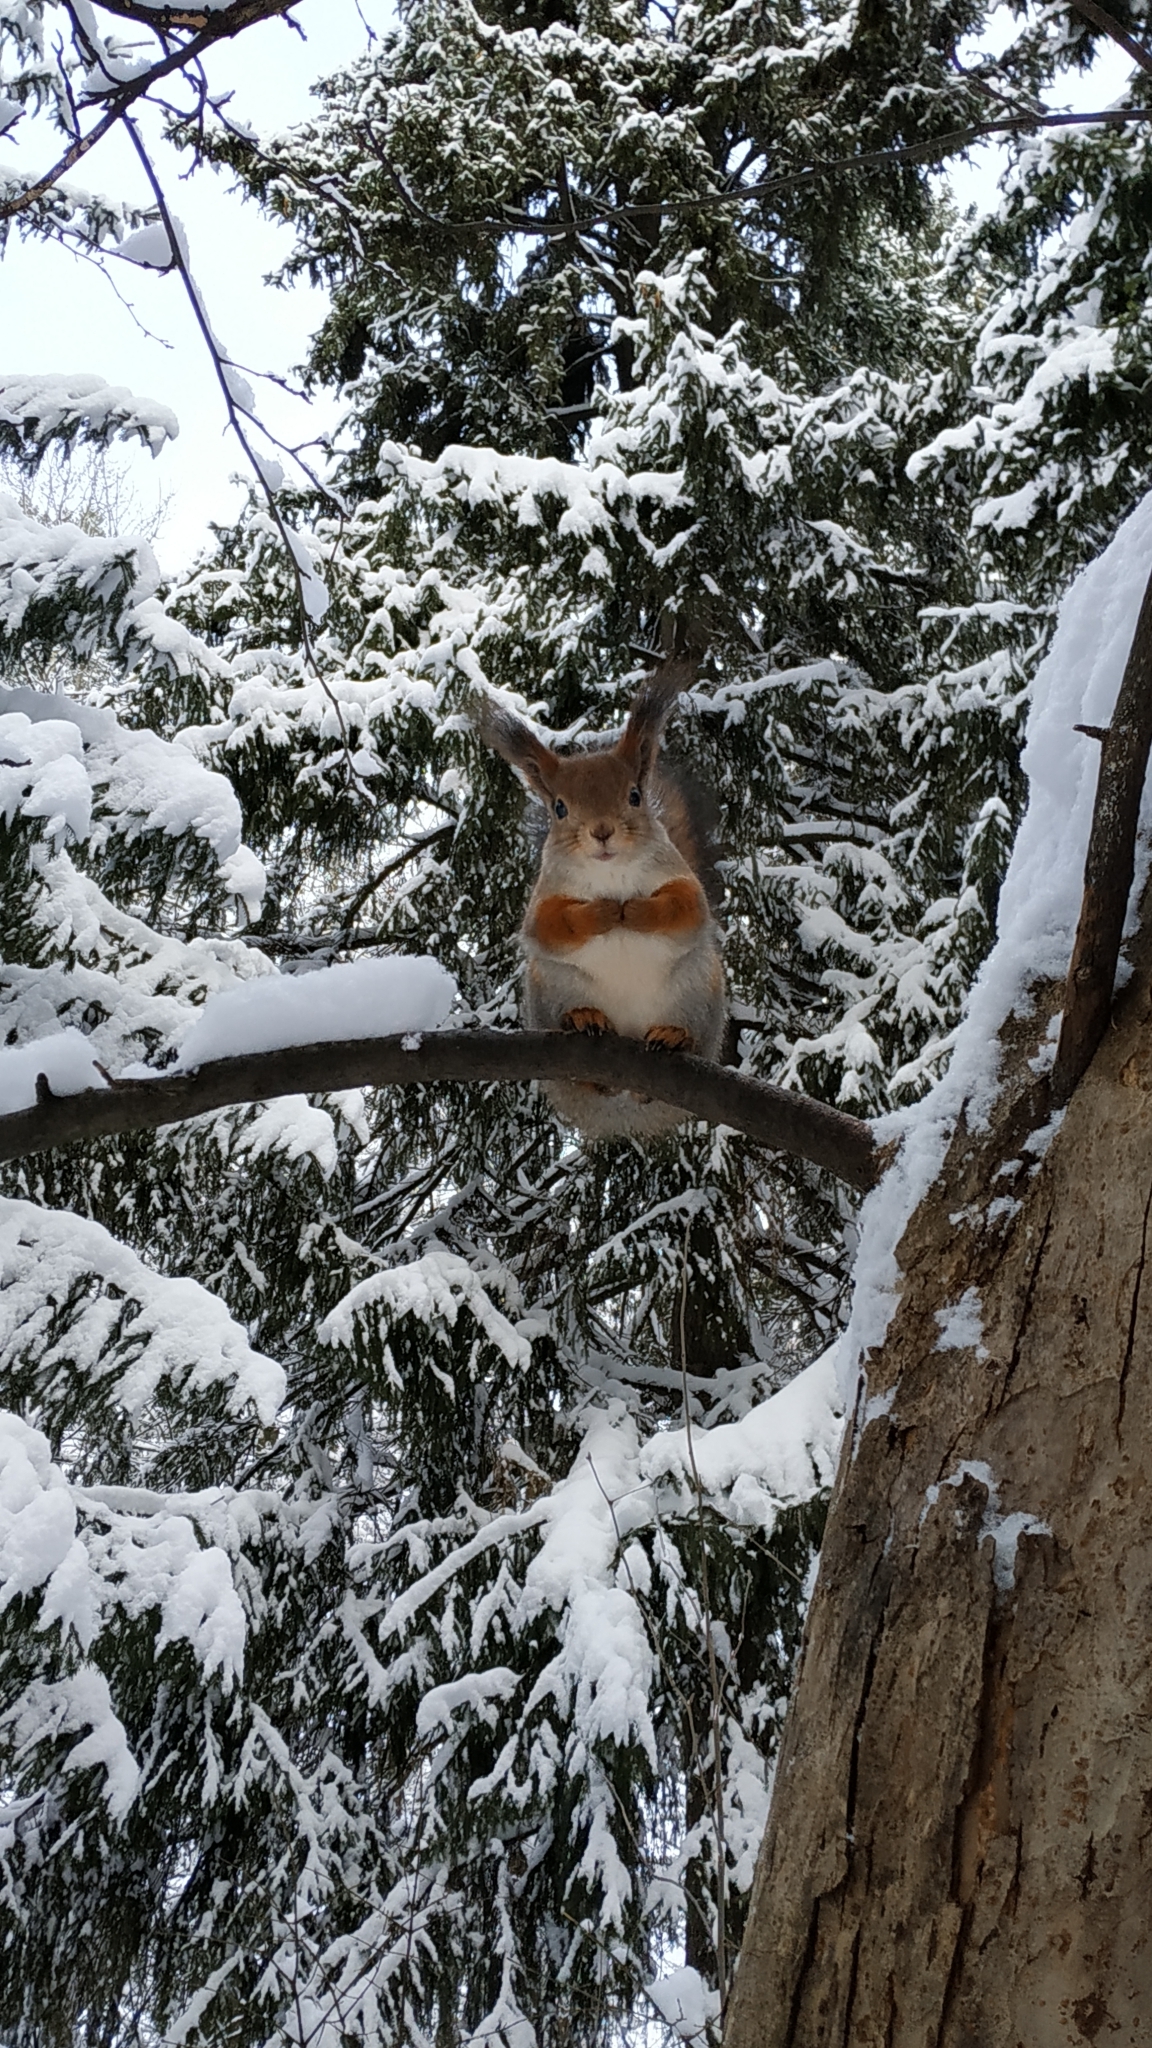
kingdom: Animalia
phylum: Chordata
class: Mammalia
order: Rodentia
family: Sciuridae
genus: Sciurus
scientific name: Sciurus vulgaris
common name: Eurasian red squirrel
